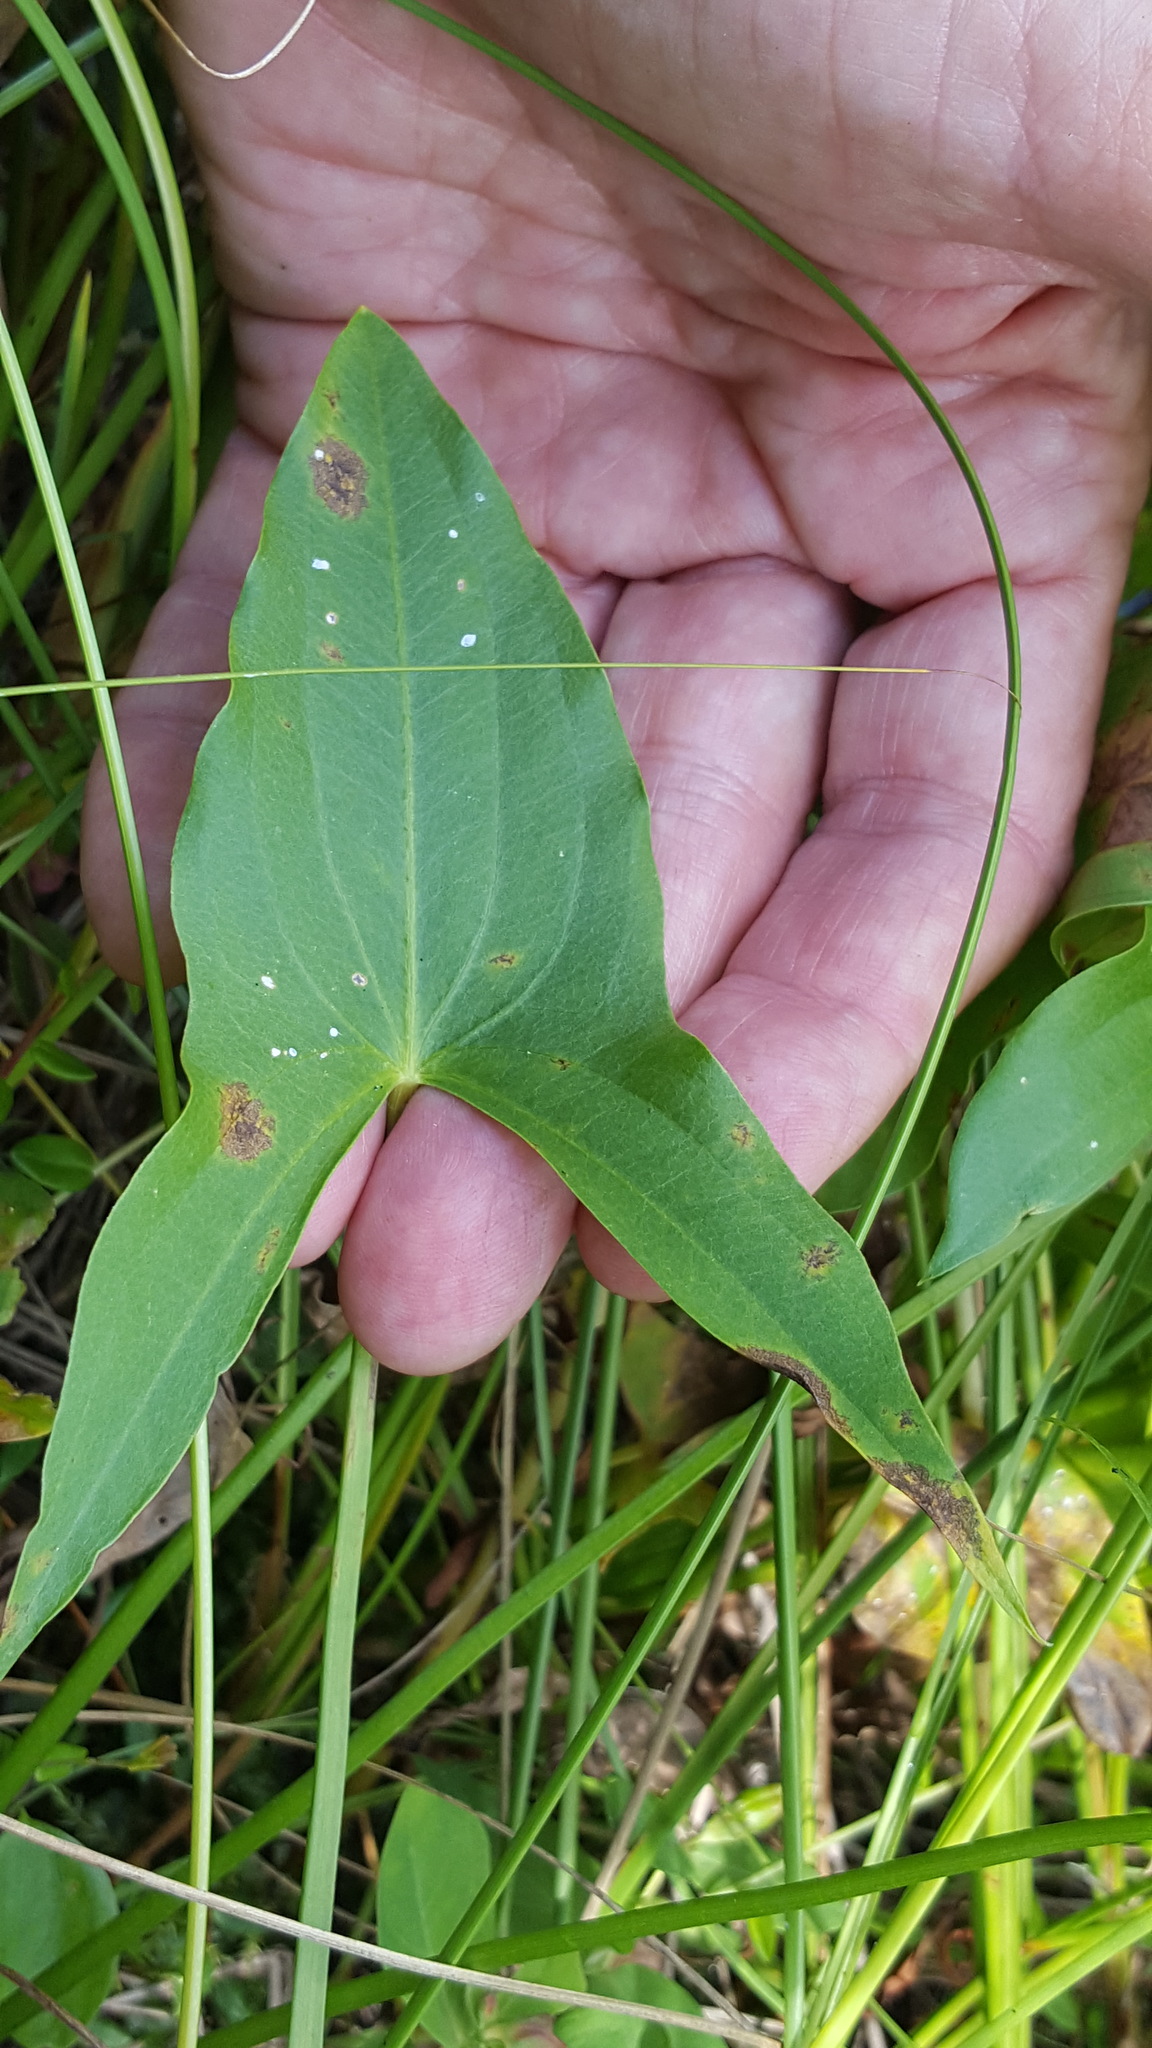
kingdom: Plantae
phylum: Tracheophyta
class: Liliopsida
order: Alismatales
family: Alismataceae
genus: Sagittaria
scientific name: Sagittaria latifolia
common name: Duck-potato
